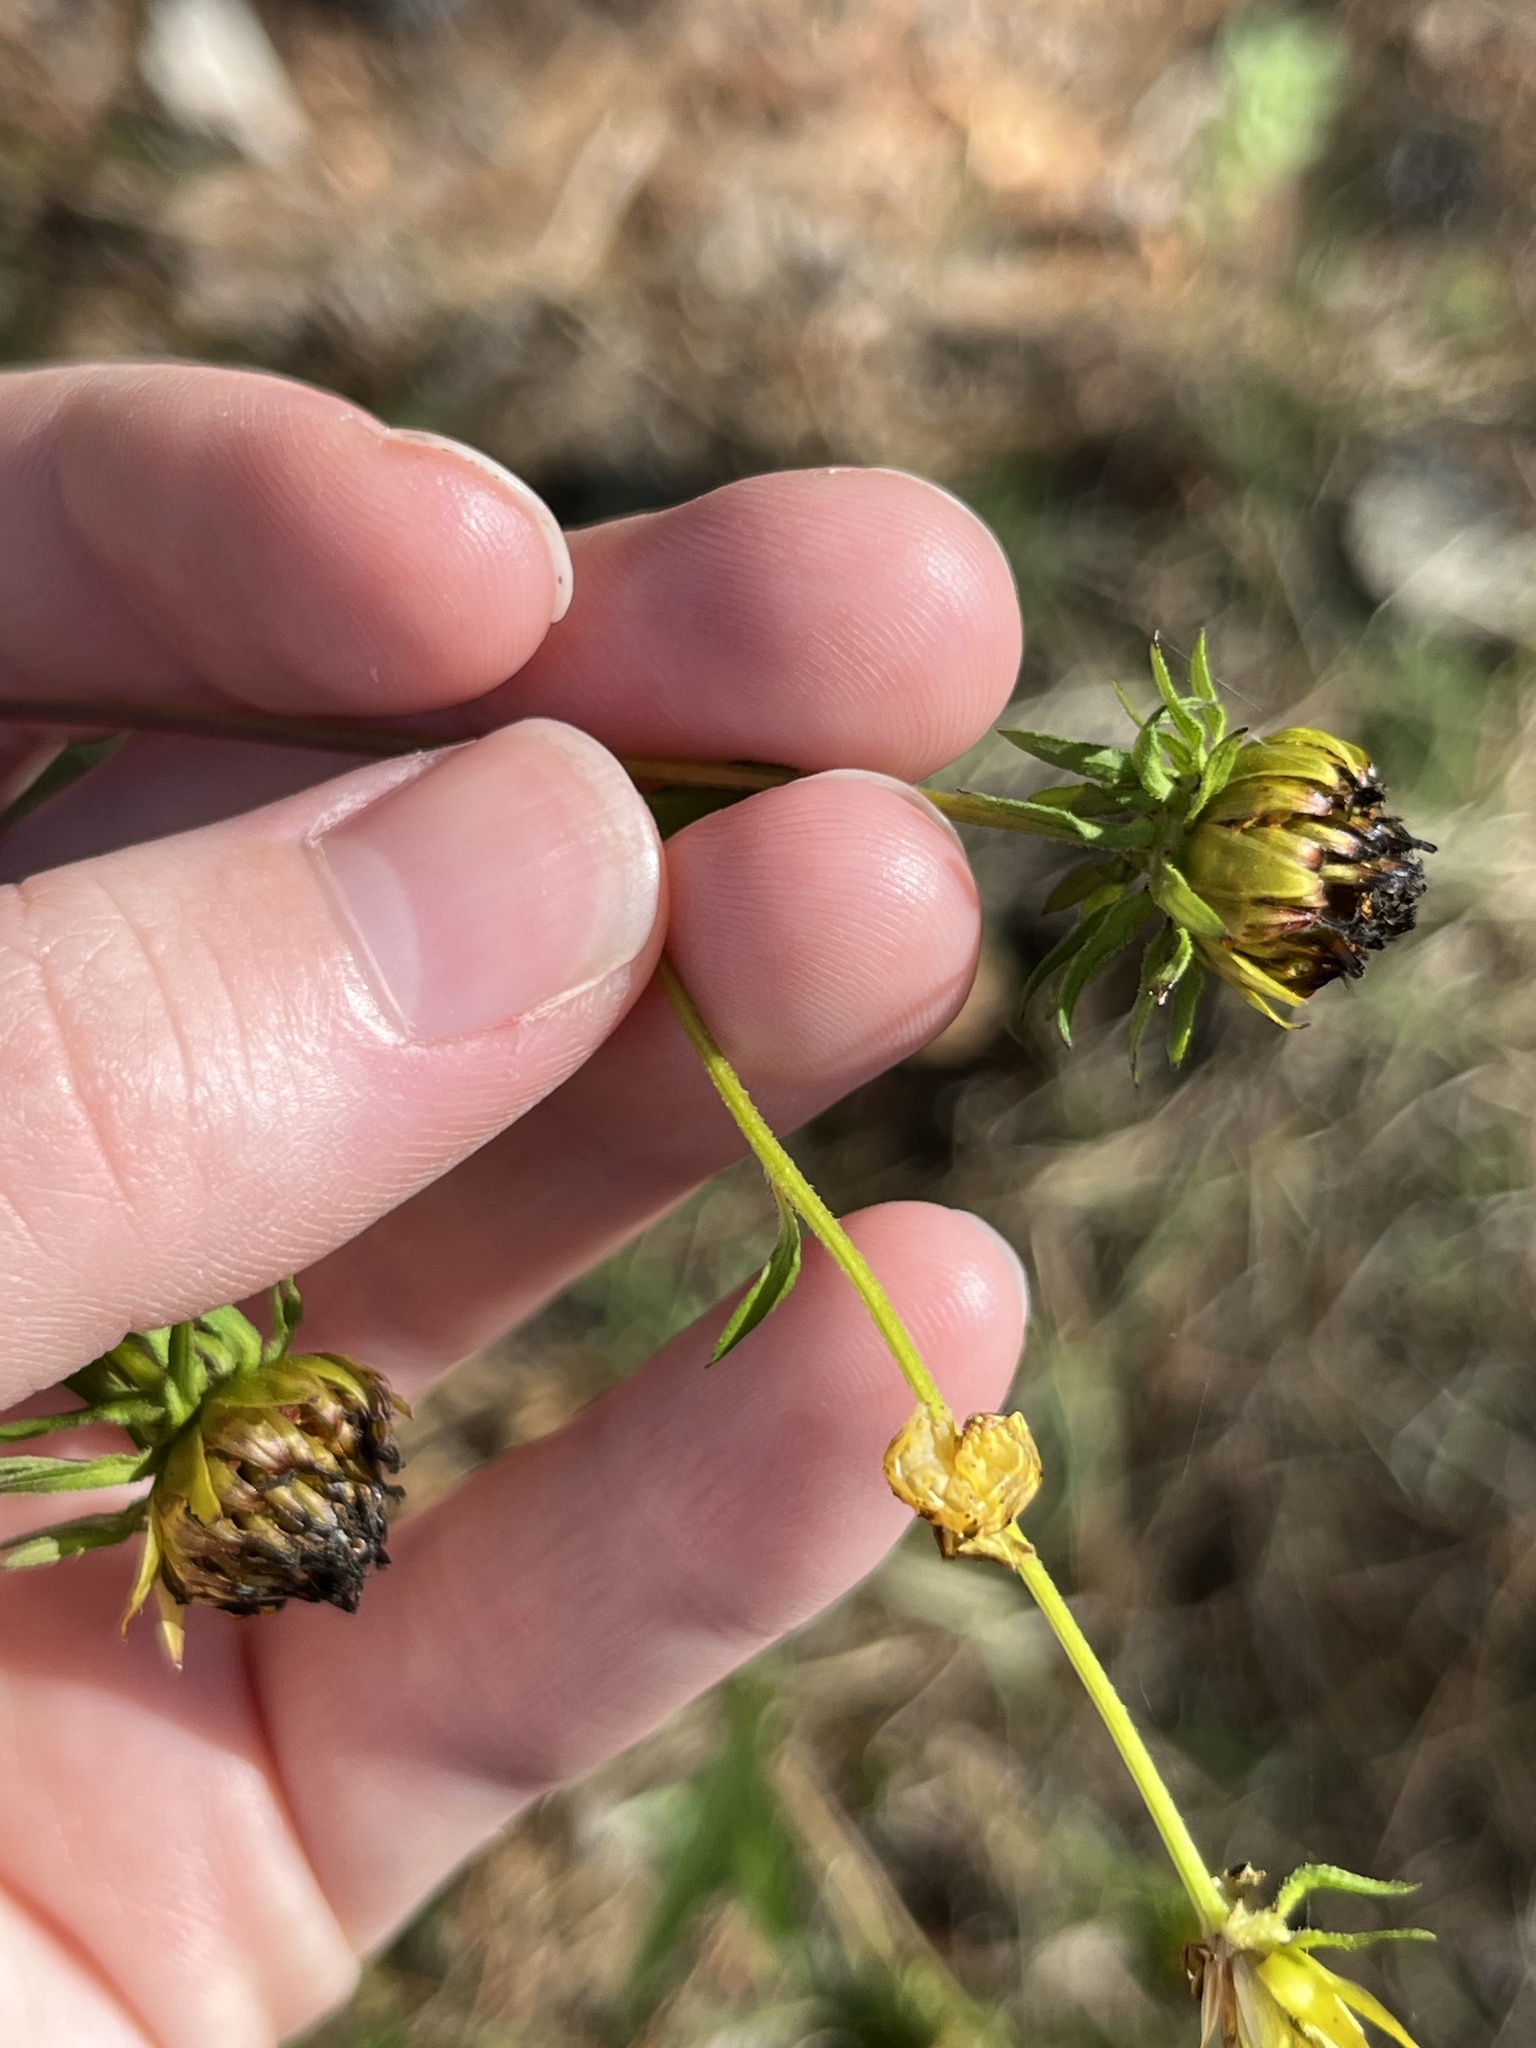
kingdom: Animalia
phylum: Arthropoda
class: Insecta
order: Lepidoptera
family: Noctuidae
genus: Cirrhophanus
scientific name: Cirrhophanus triangulifer
